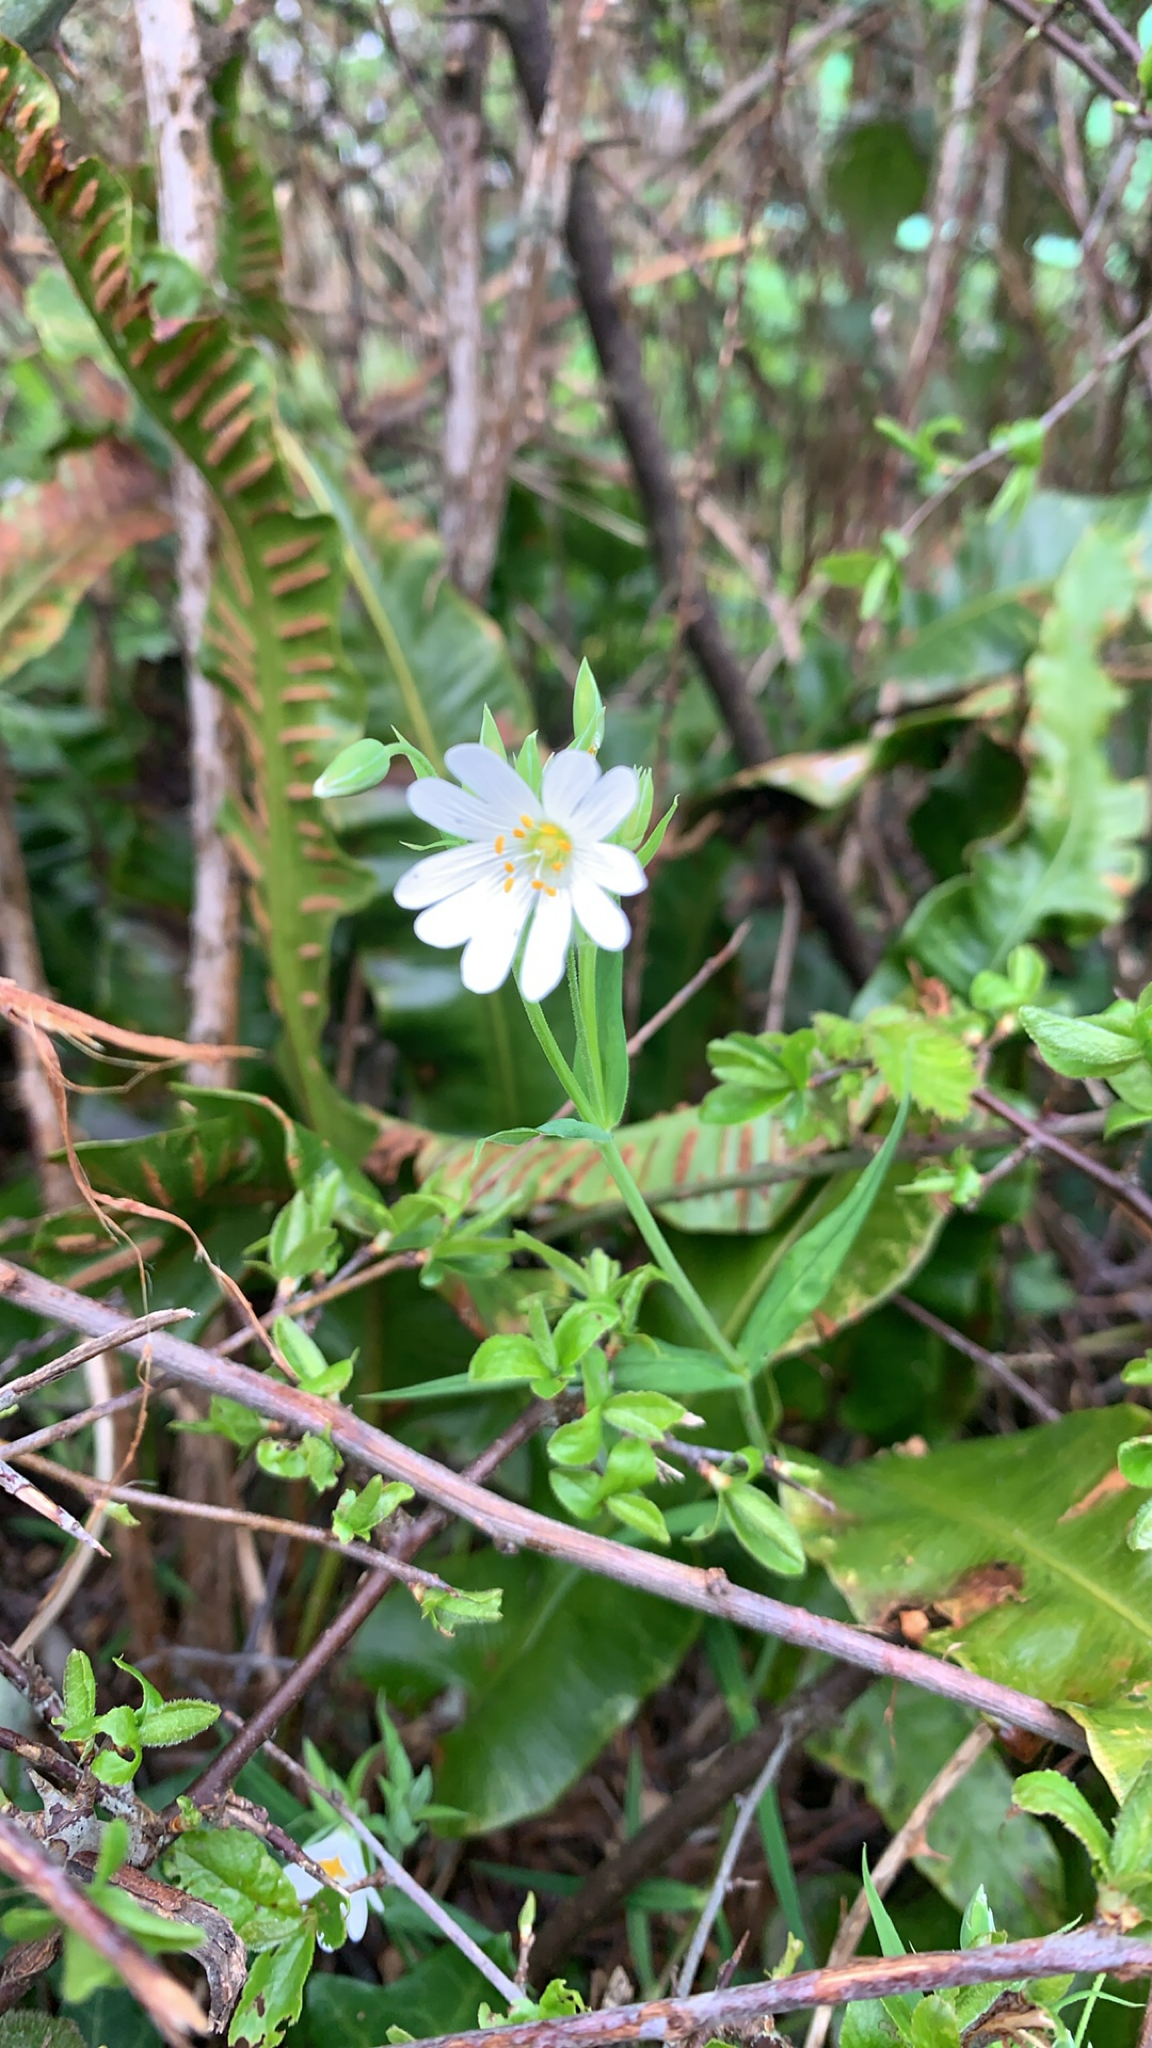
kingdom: Plantae
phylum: Tracheophyta
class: Magnoliopsida
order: Caryophyllales
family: Caryophyllaceae
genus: Rabelera
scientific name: Rabelera holostea
